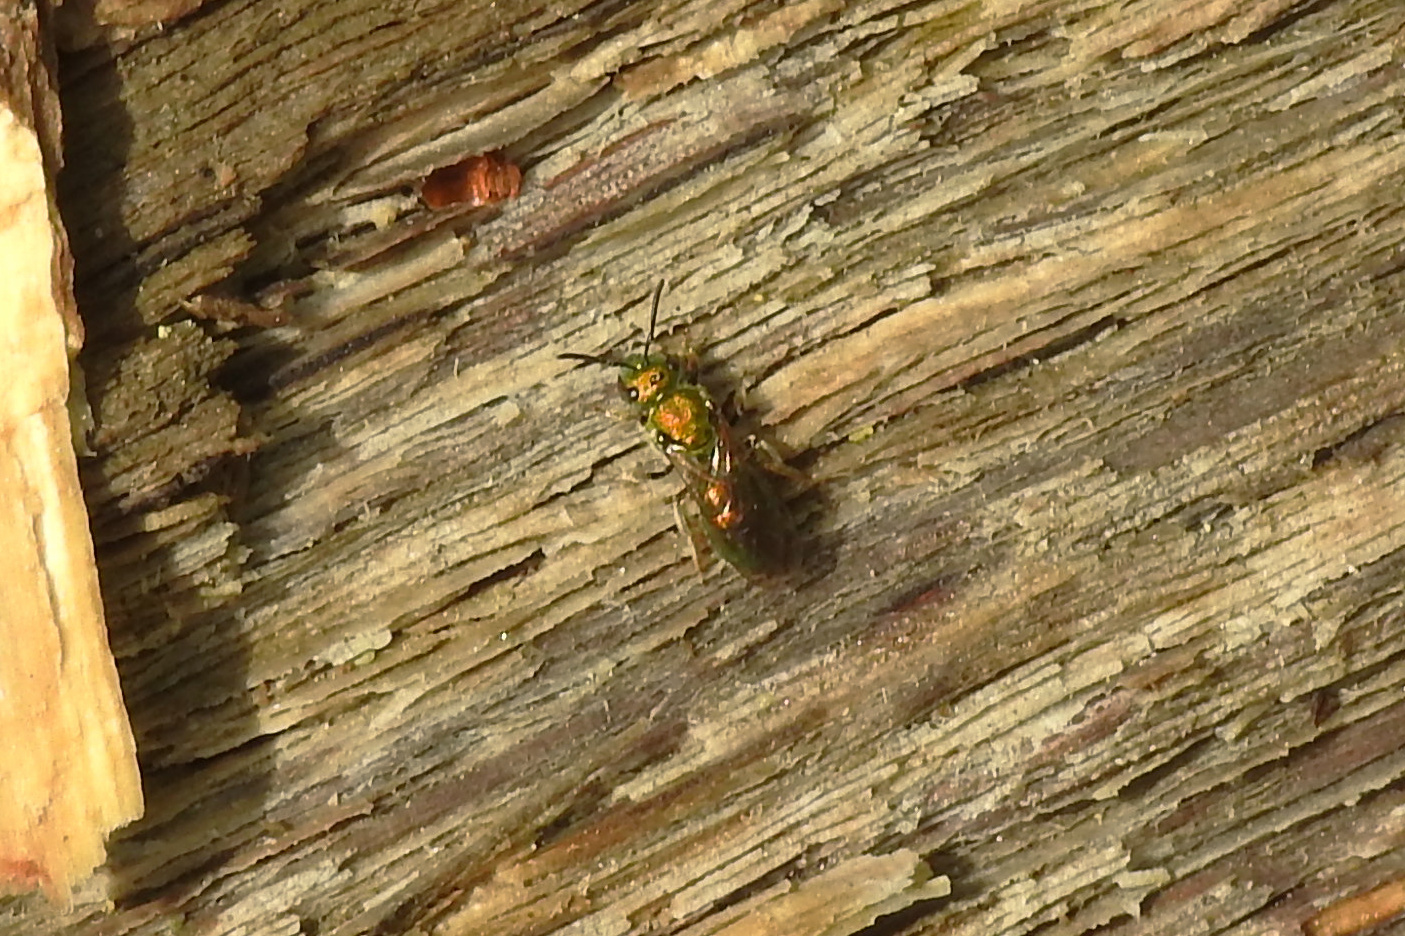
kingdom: Animalia
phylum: Arthropoda
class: Insecta
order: Hymenoptera
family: Halictidae
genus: Augochlora
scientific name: Augochlora pura
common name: Pure green sweat bee
